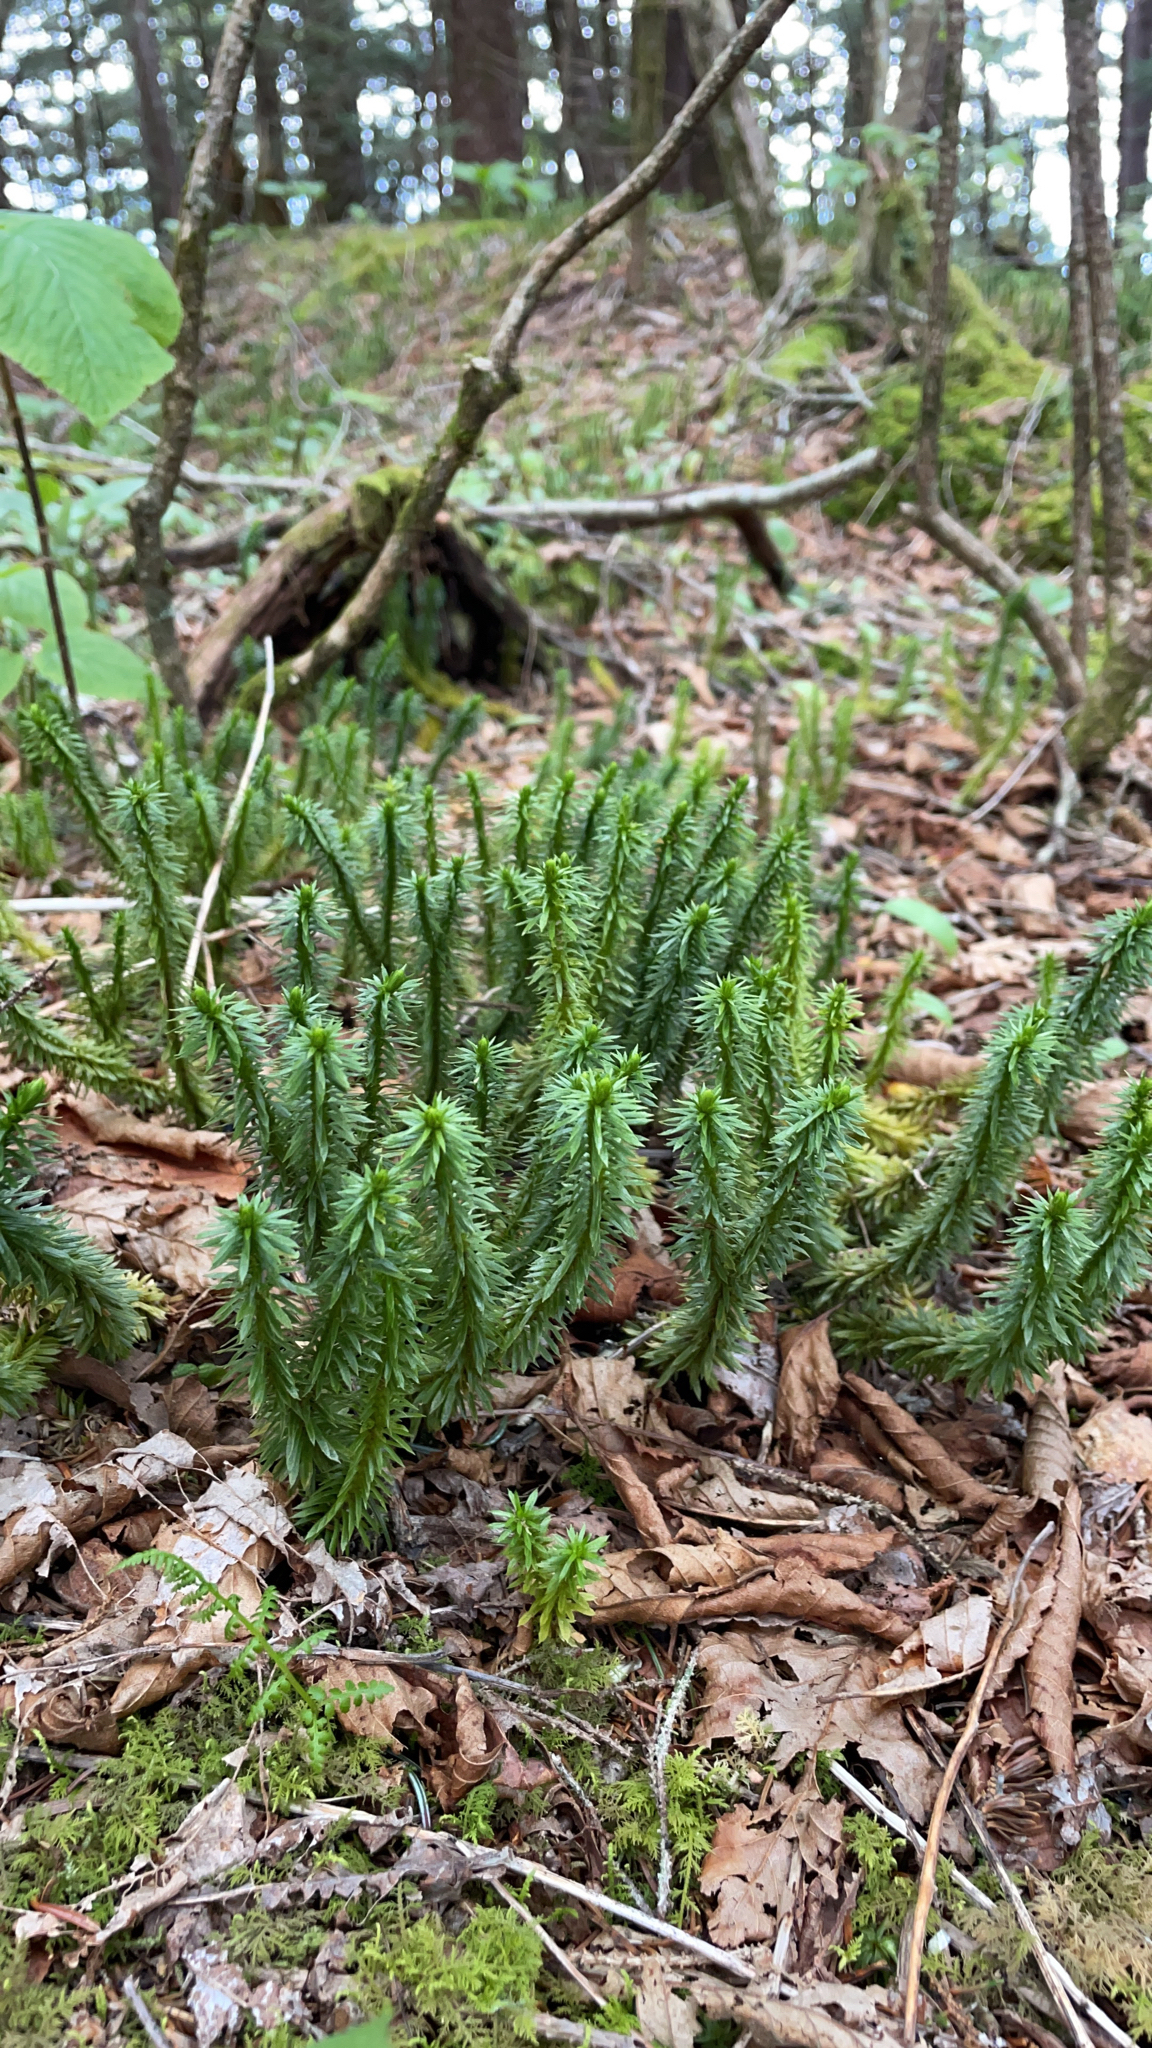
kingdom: Plantae
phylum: Tracheophyta
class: Lycopodiopsida
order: Lycopodiales
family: Lycopodiaceae
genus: Huperzia
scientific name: Huperzia lucidula
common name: Shining clubmoss
